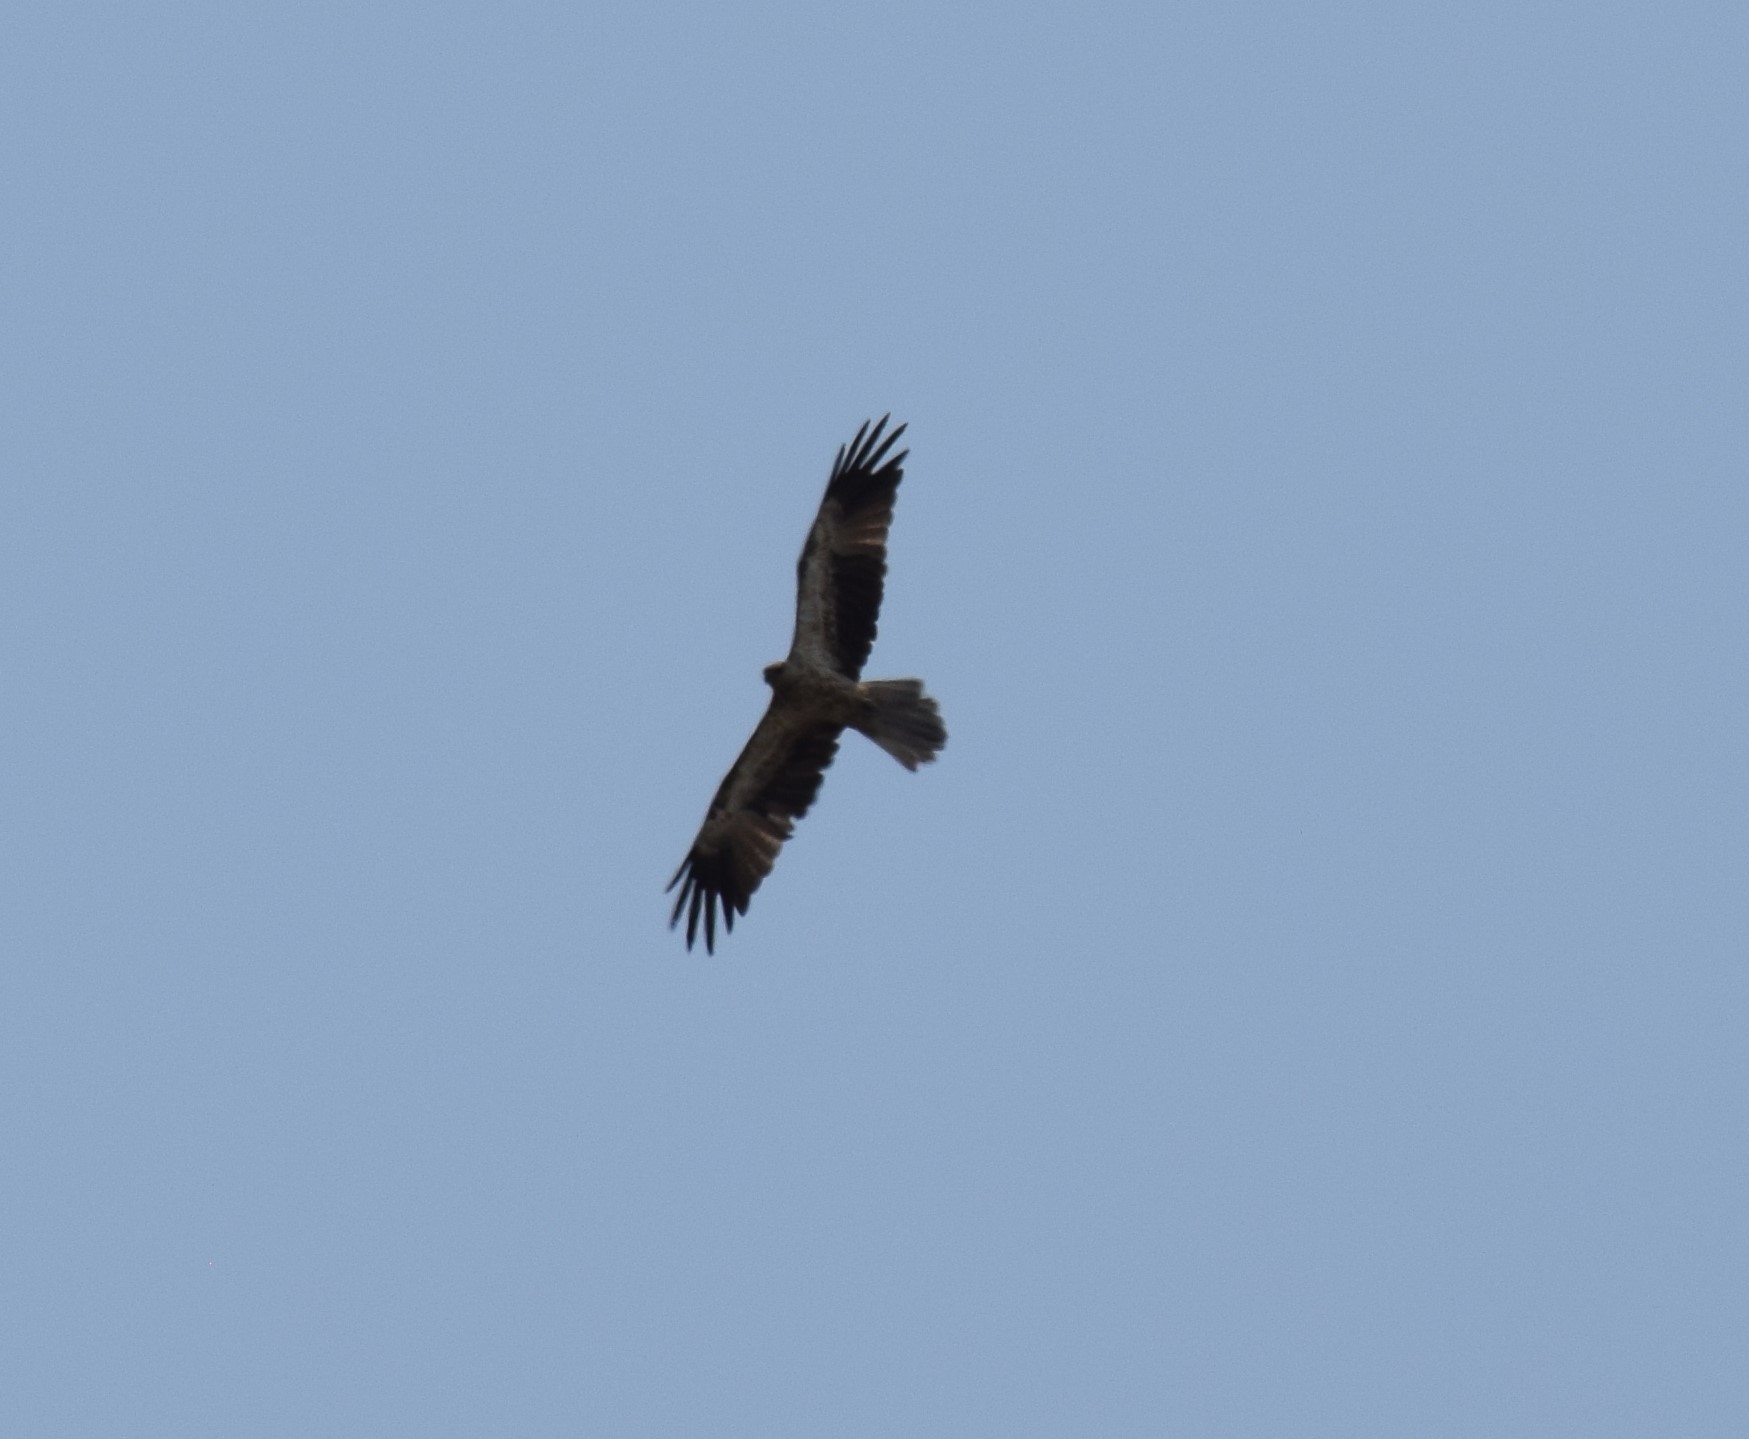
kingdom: Animalia
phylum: Chordata
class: Aves
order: Accipitriformes
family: Accipitridae
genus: Haliastur
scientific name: Haliastur sphenurus
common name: Whistling kite
